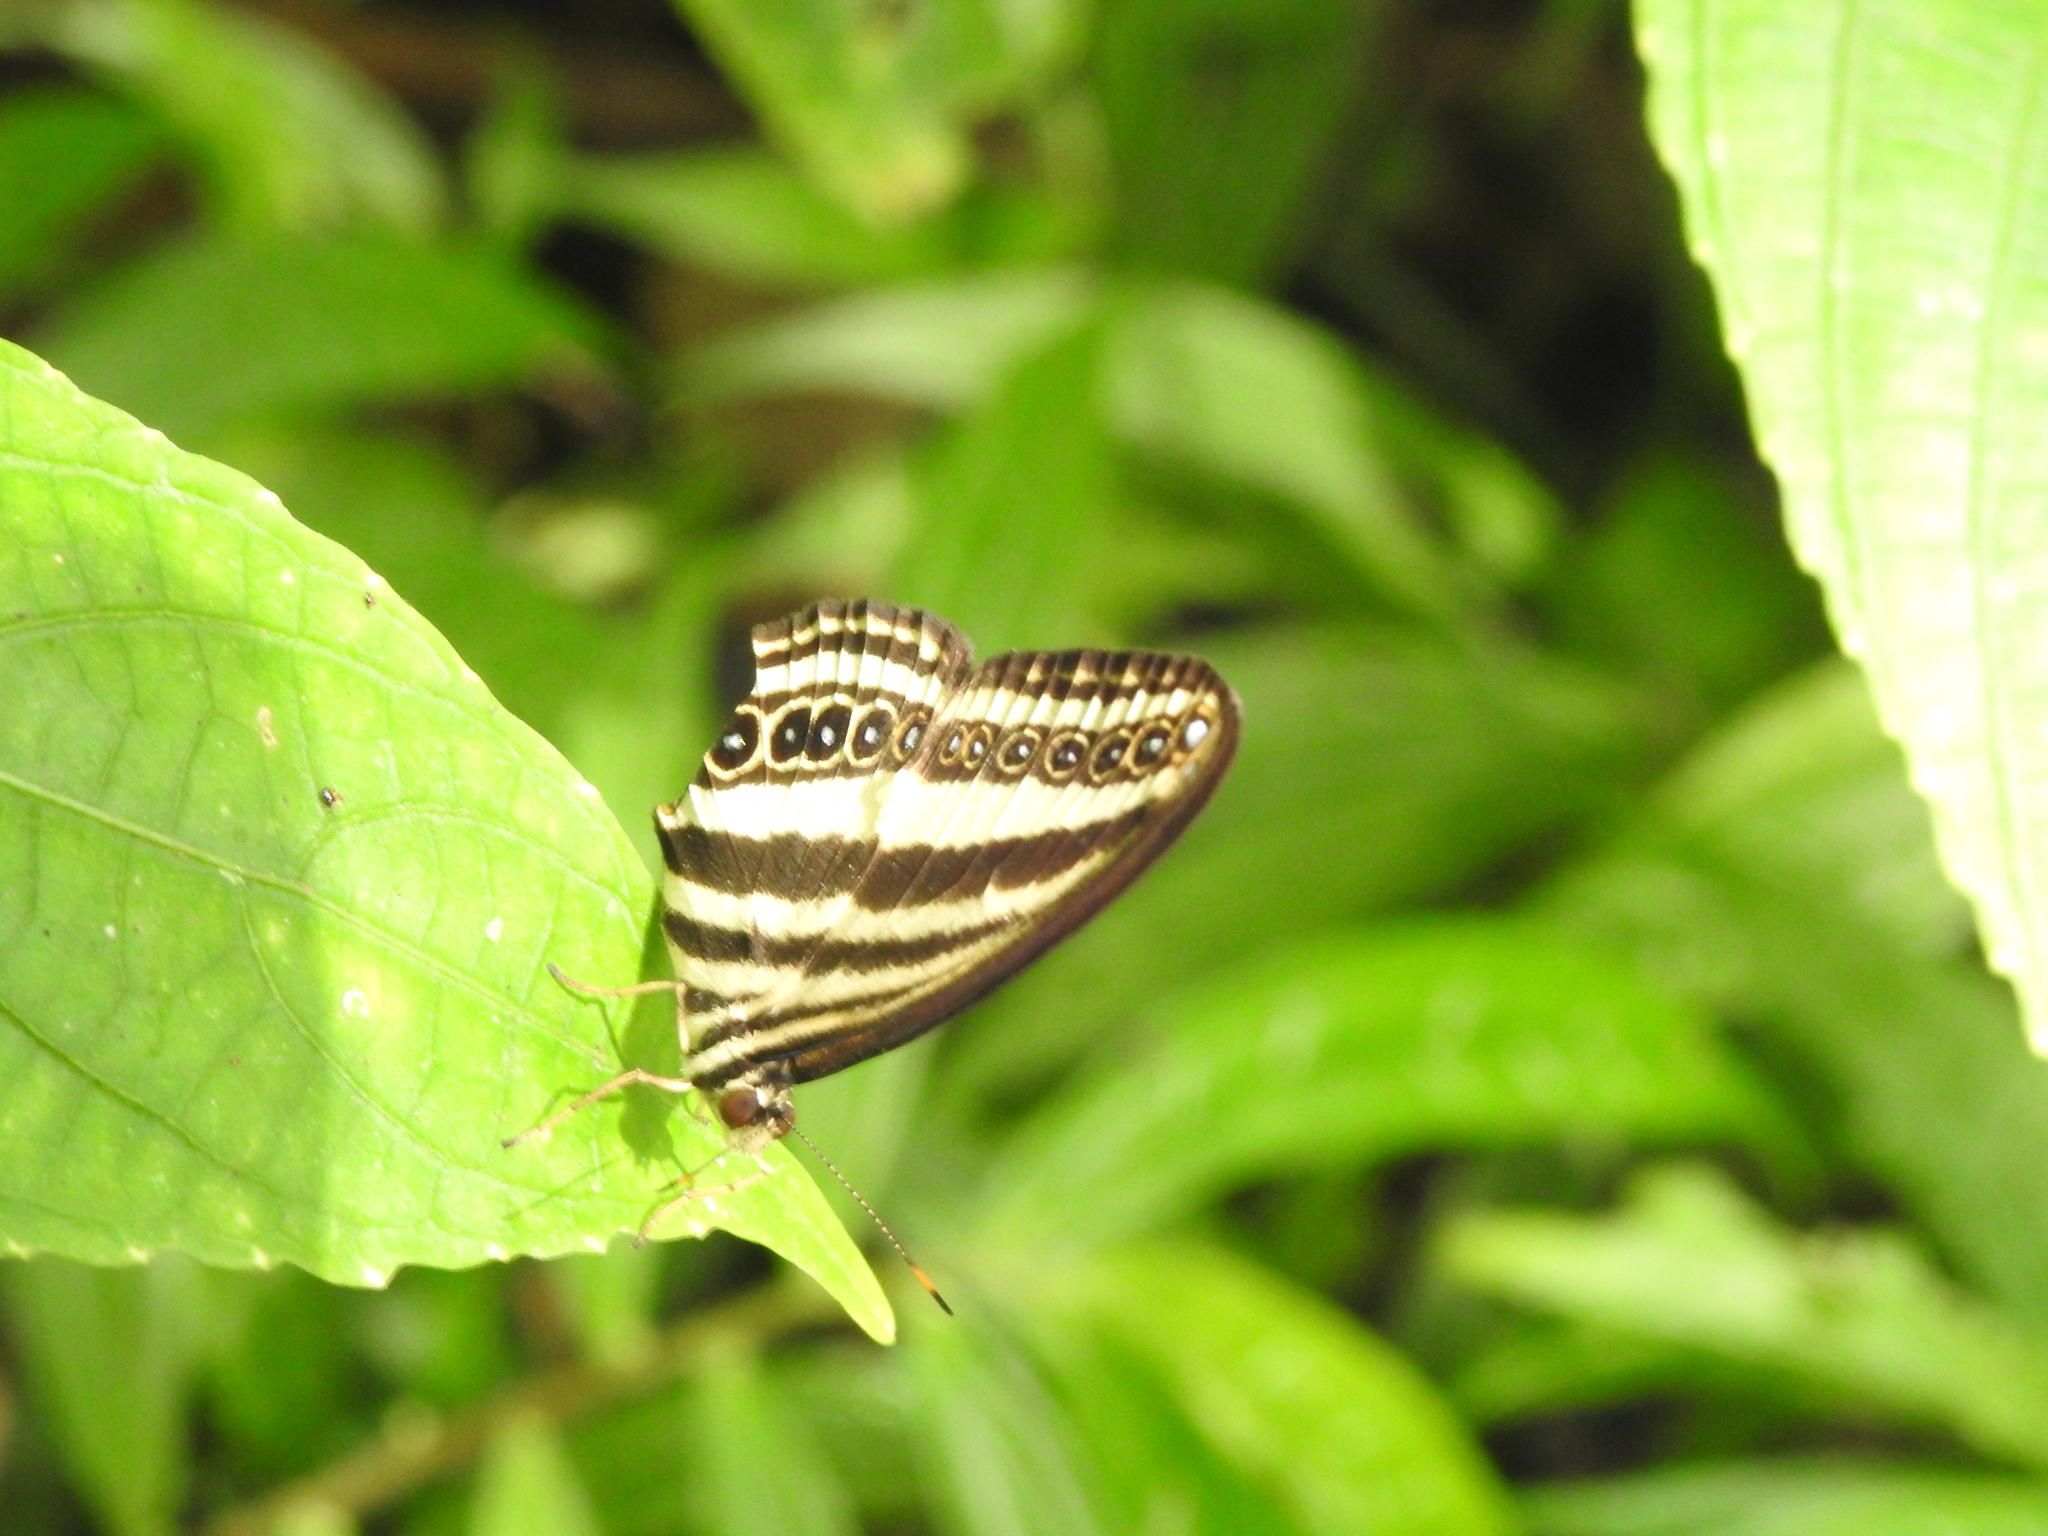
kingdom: Animalia
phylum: Arthropoda
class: Insecta
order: Lepidoptera
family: Nymphalidae
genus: Ragadia
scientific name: Ragadia luzonia
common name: Luzon striped ringlet
